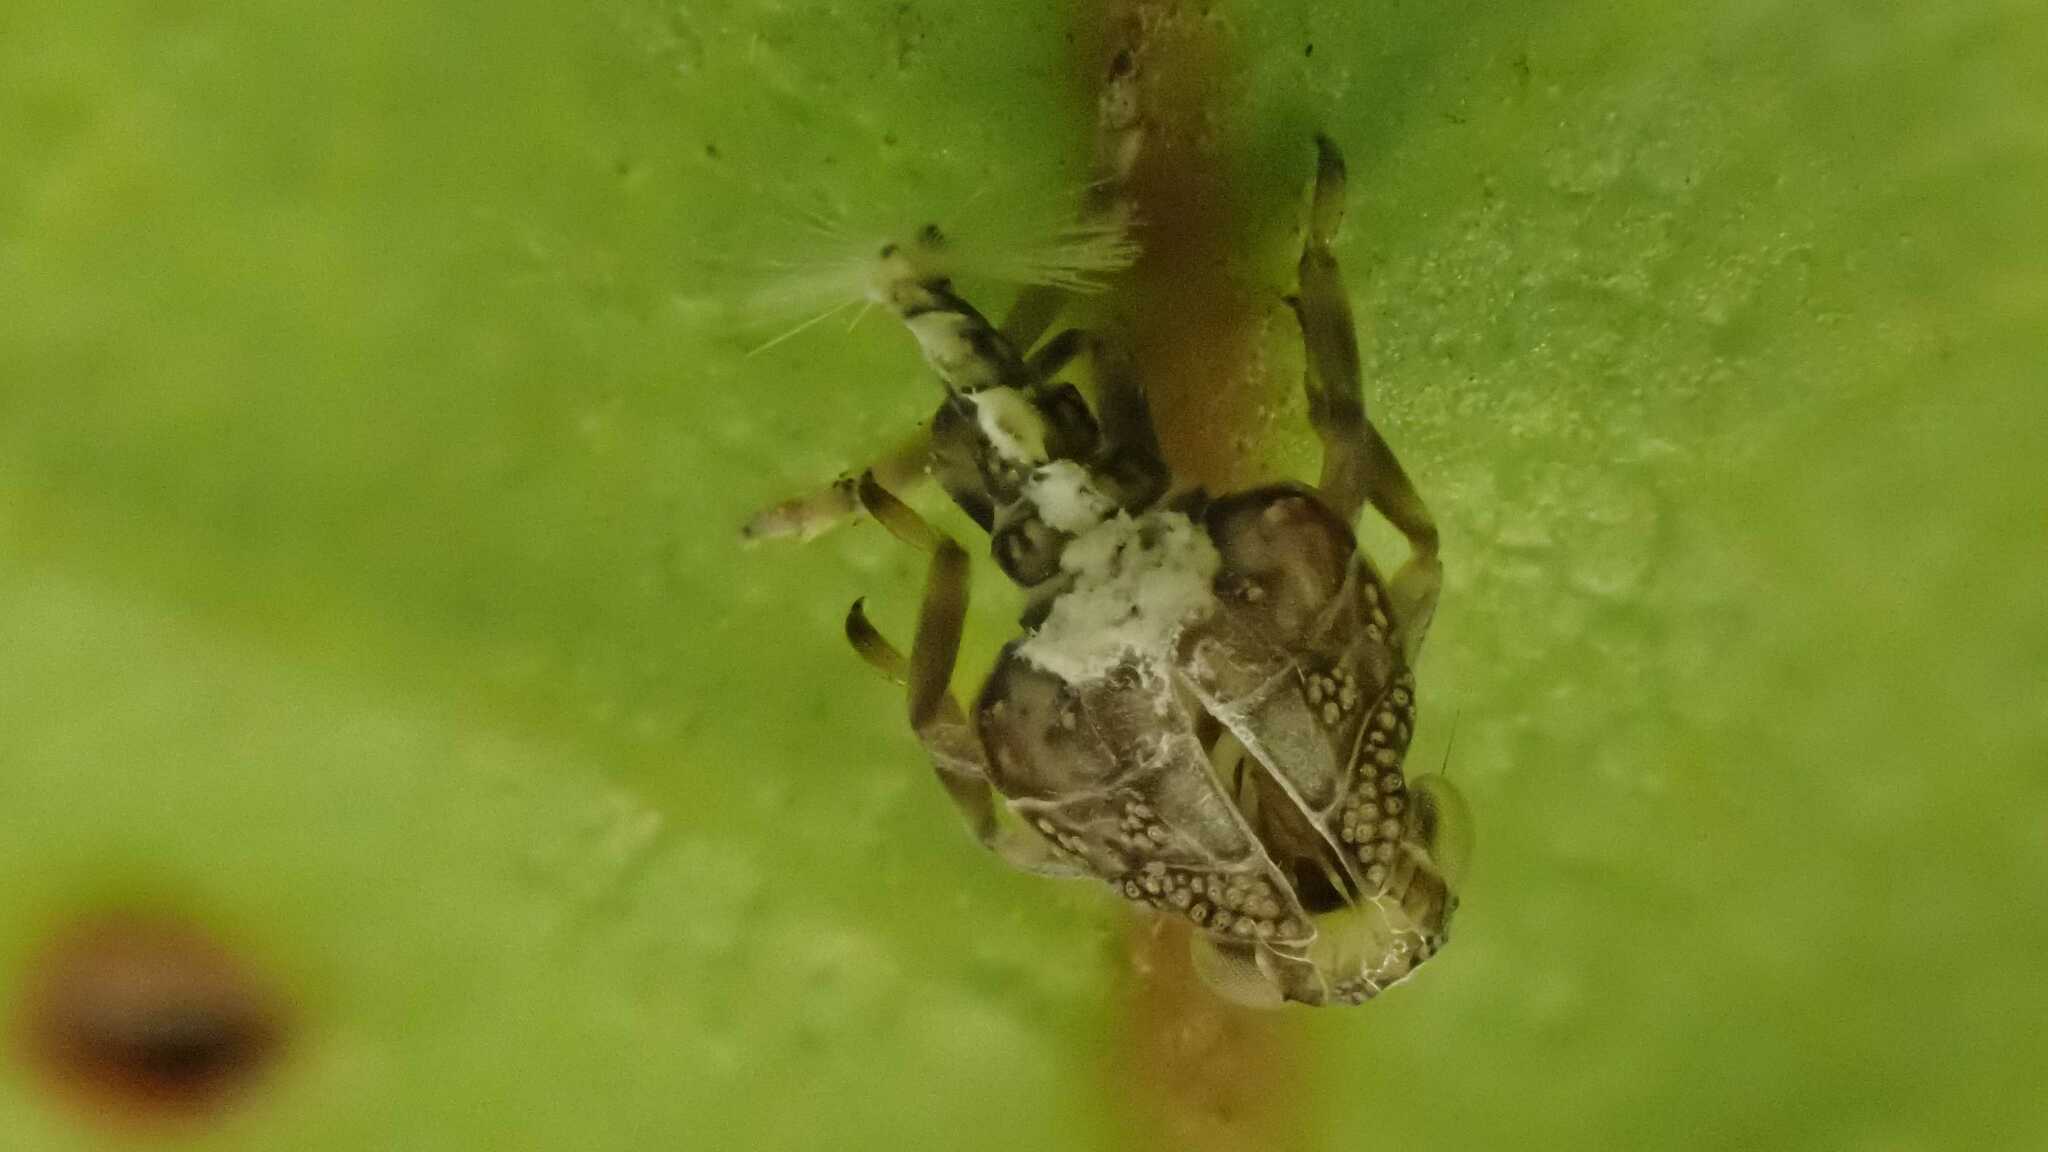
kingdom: Animalia
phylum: Arthropoda
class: Insecta
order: Hemiptera
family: Issidae
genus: Issus
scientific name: Issus coleoptratus
